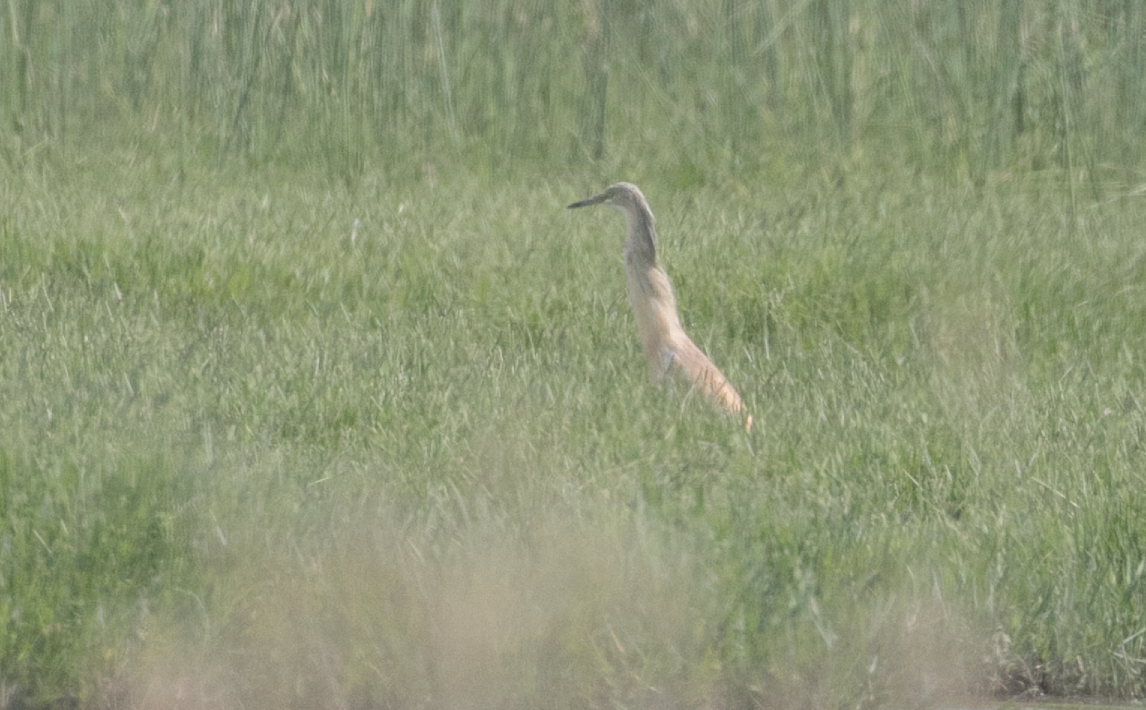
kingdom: Animalia
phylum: Chordata
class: Aves
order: Pelecaniformes
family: Ardeidae
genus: Ardeola
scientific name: Ardeola ralloides
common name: Squacco heron
